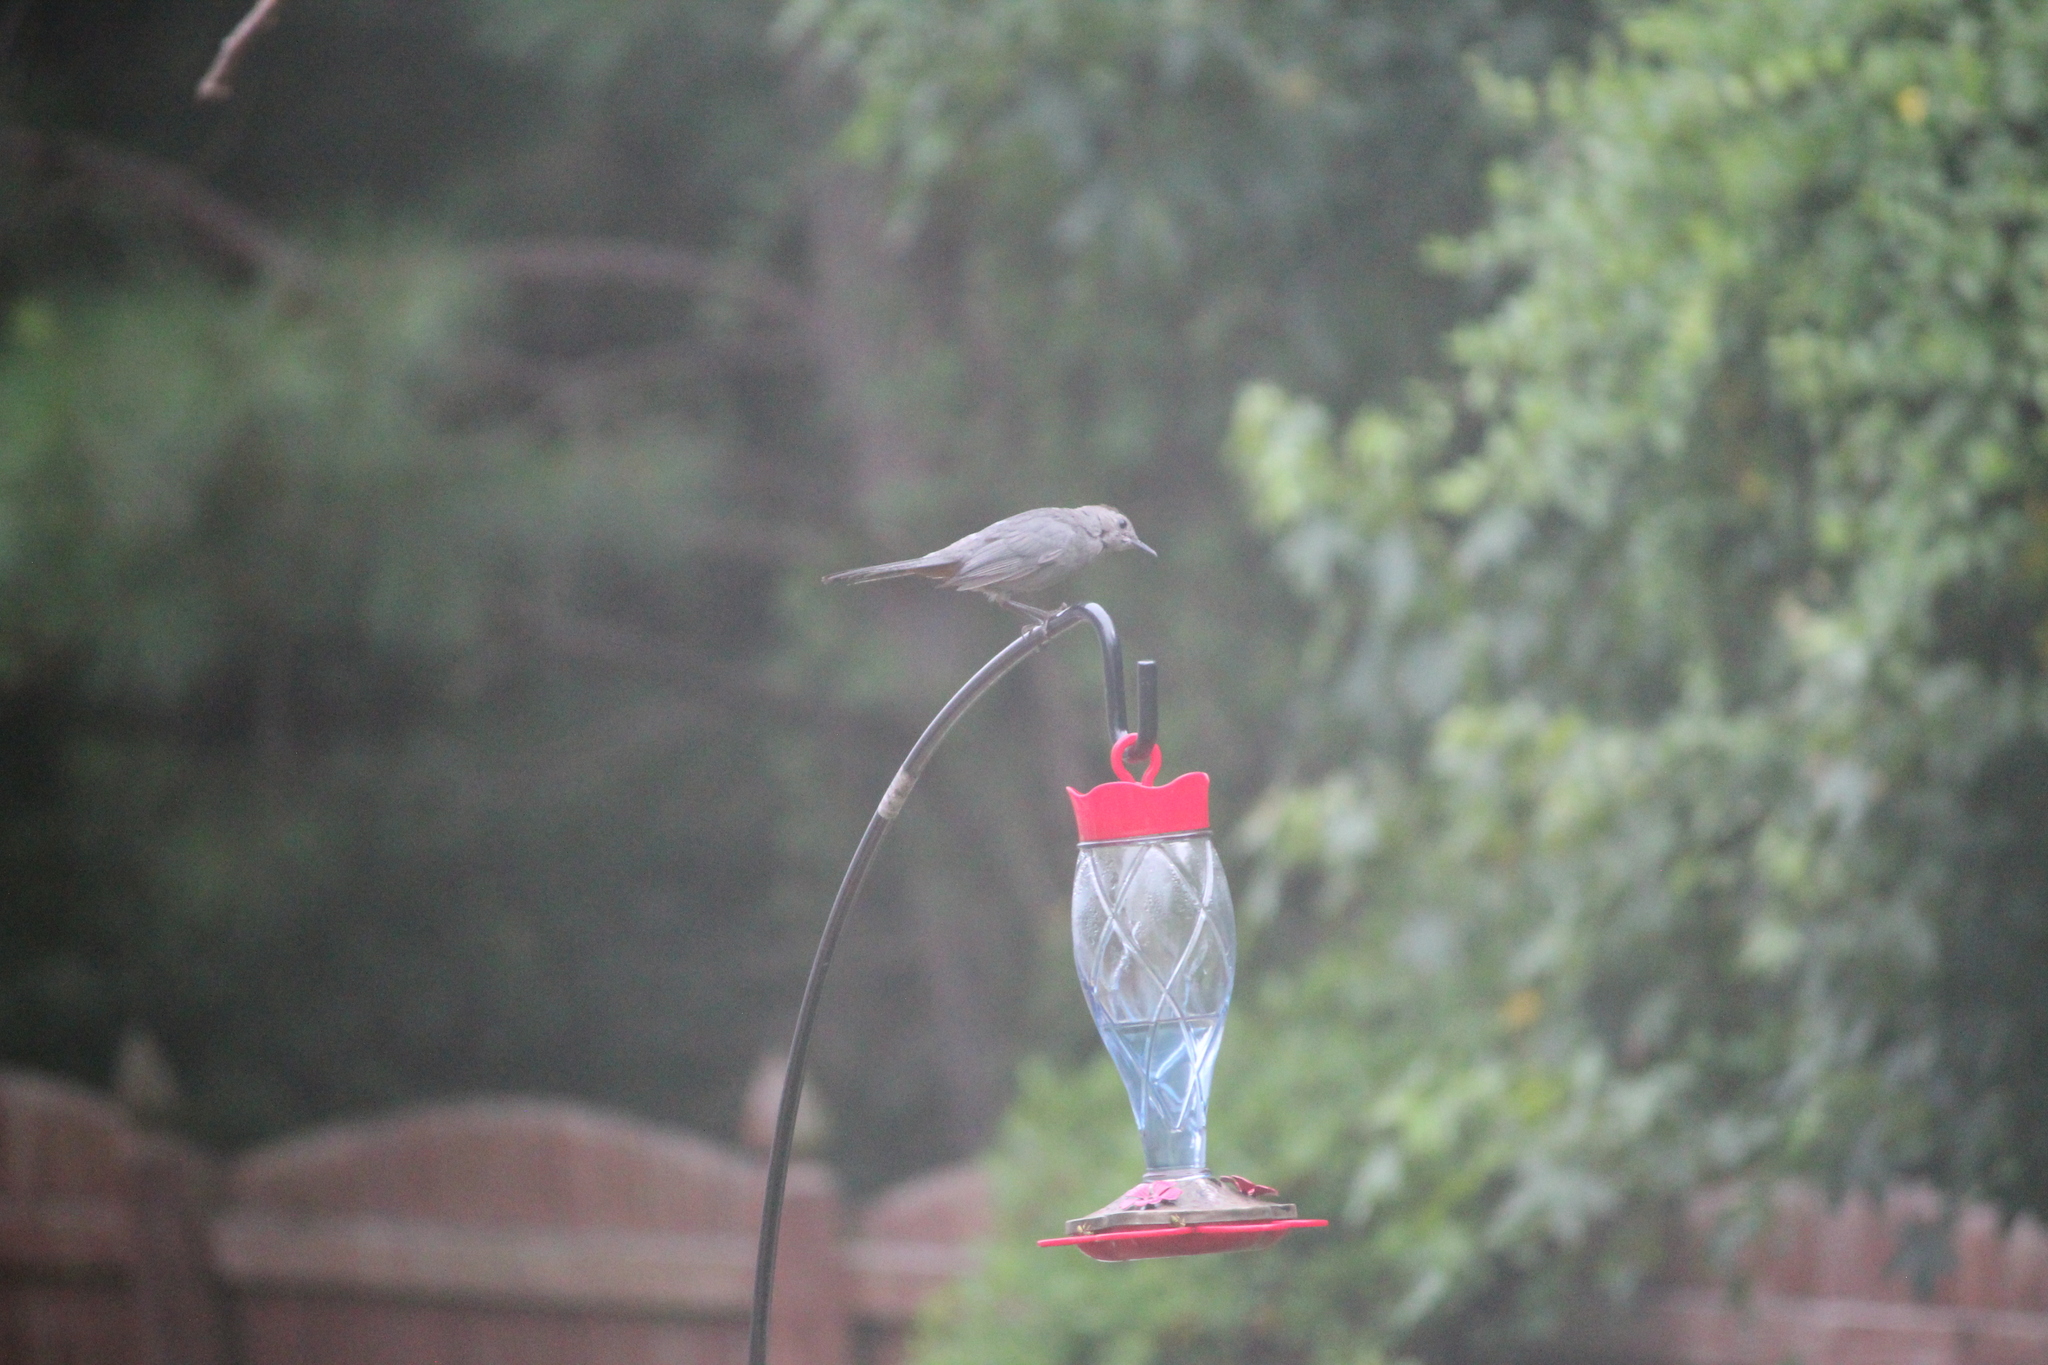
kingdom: Animalia
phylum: Chordata
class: Aves
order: Passeriformes
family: Mimidae
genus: Dumetella
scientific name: Dumetella carolinensis
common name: Gray catbird
